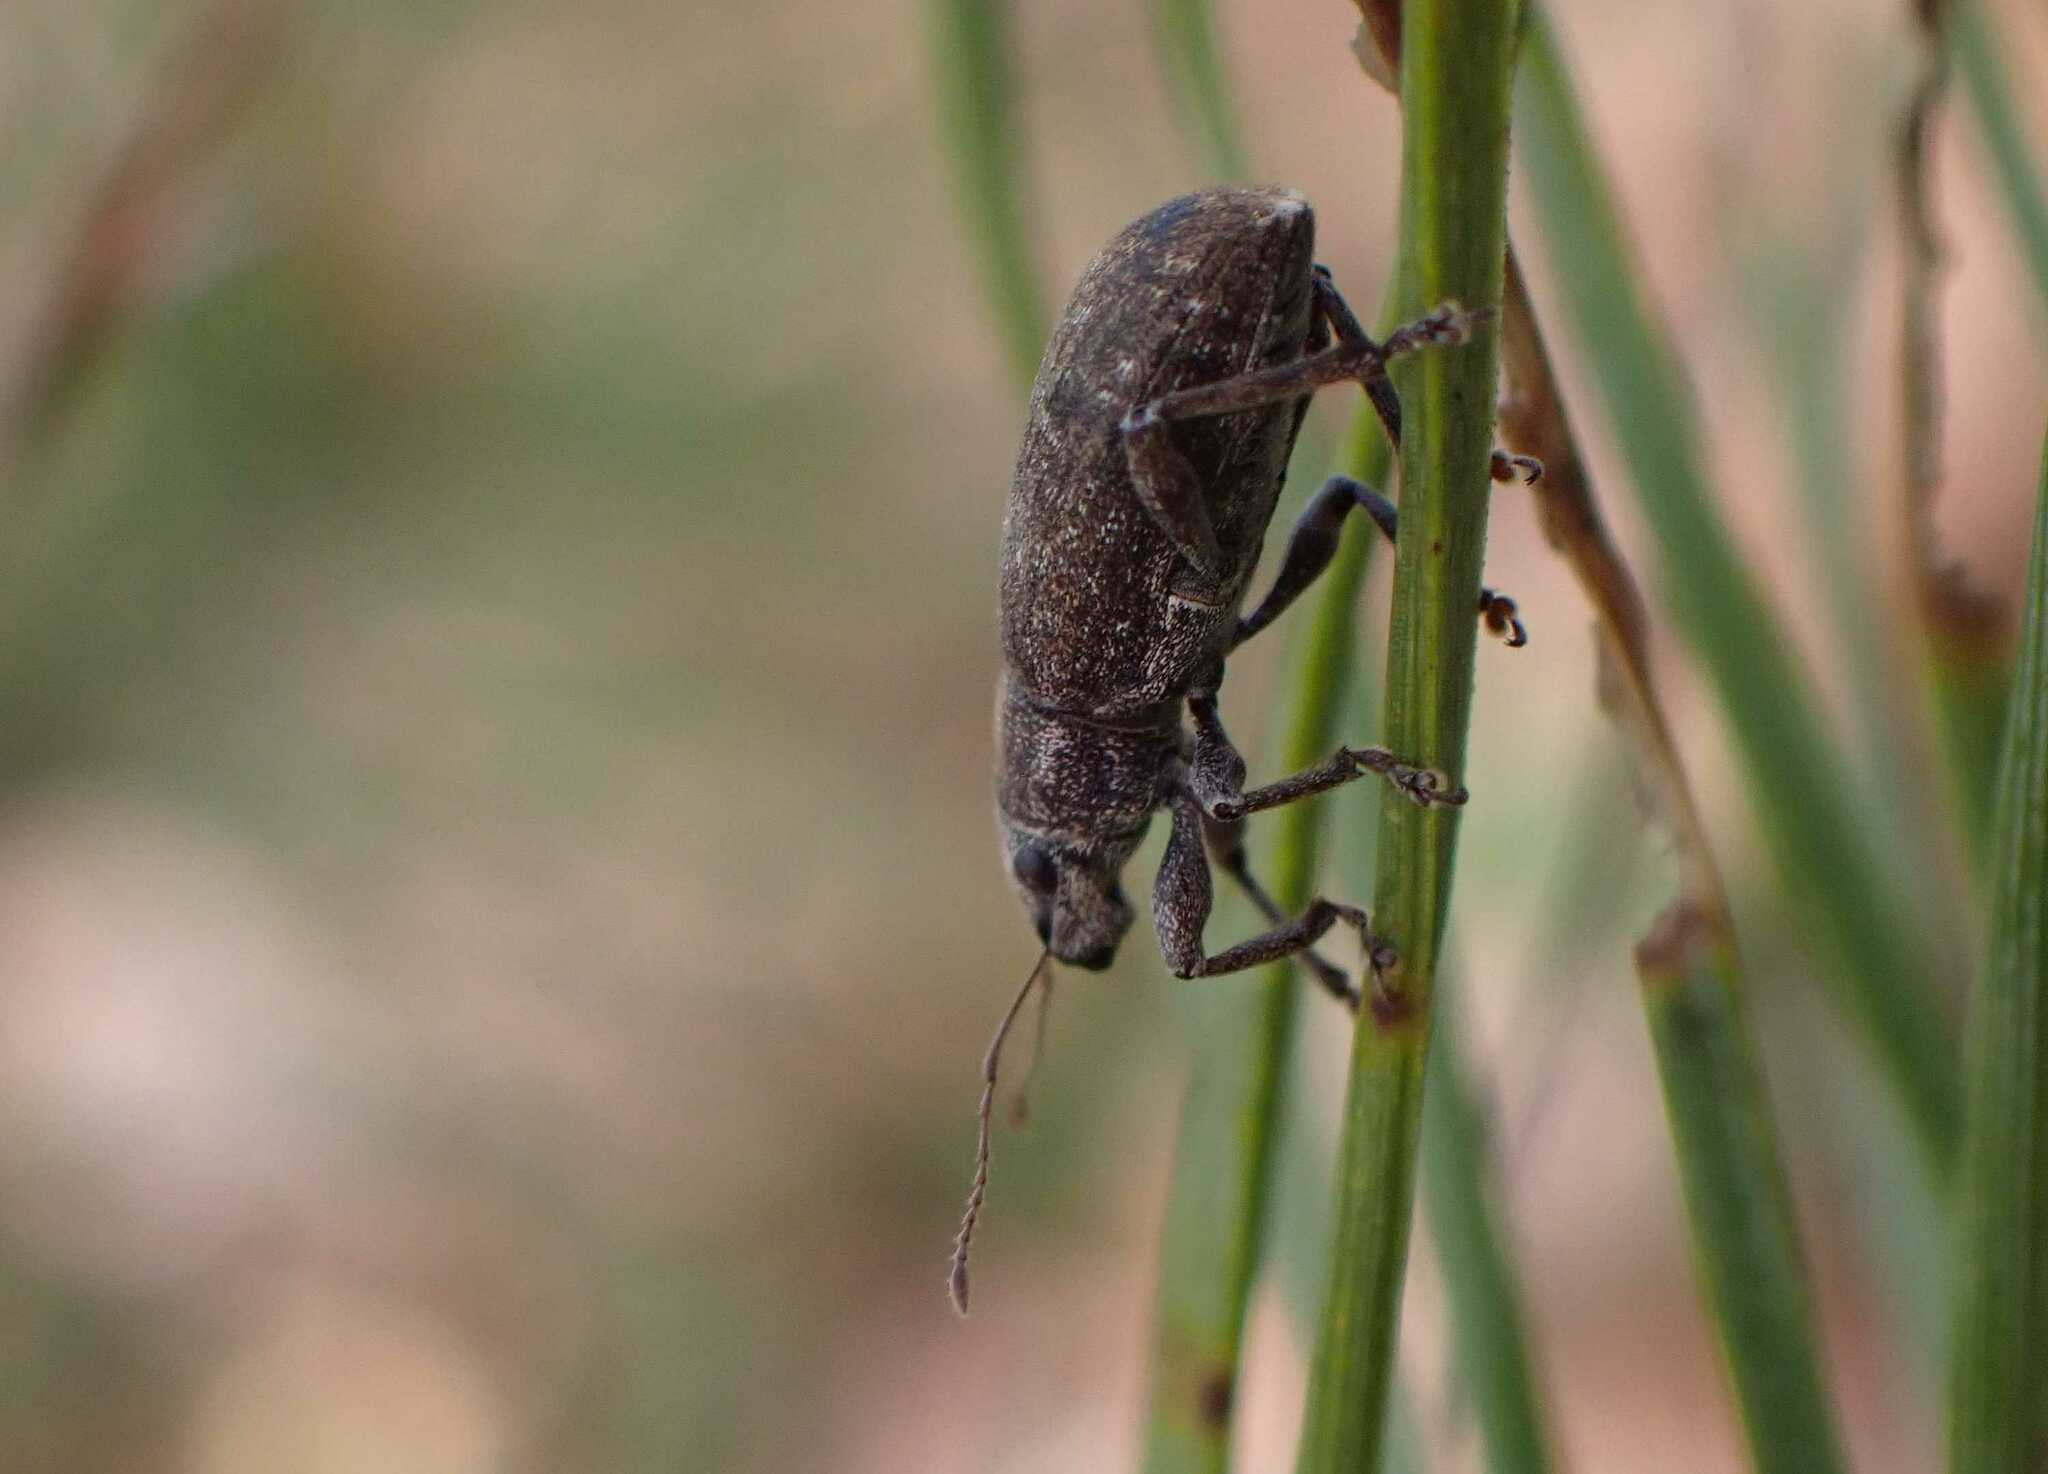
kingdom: Animalia
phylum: Arthropoda
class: Insecta
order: Coleoptera
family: Curculionidae
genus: Brachyderes
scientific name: Brachyderes incanus
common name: Weevil
